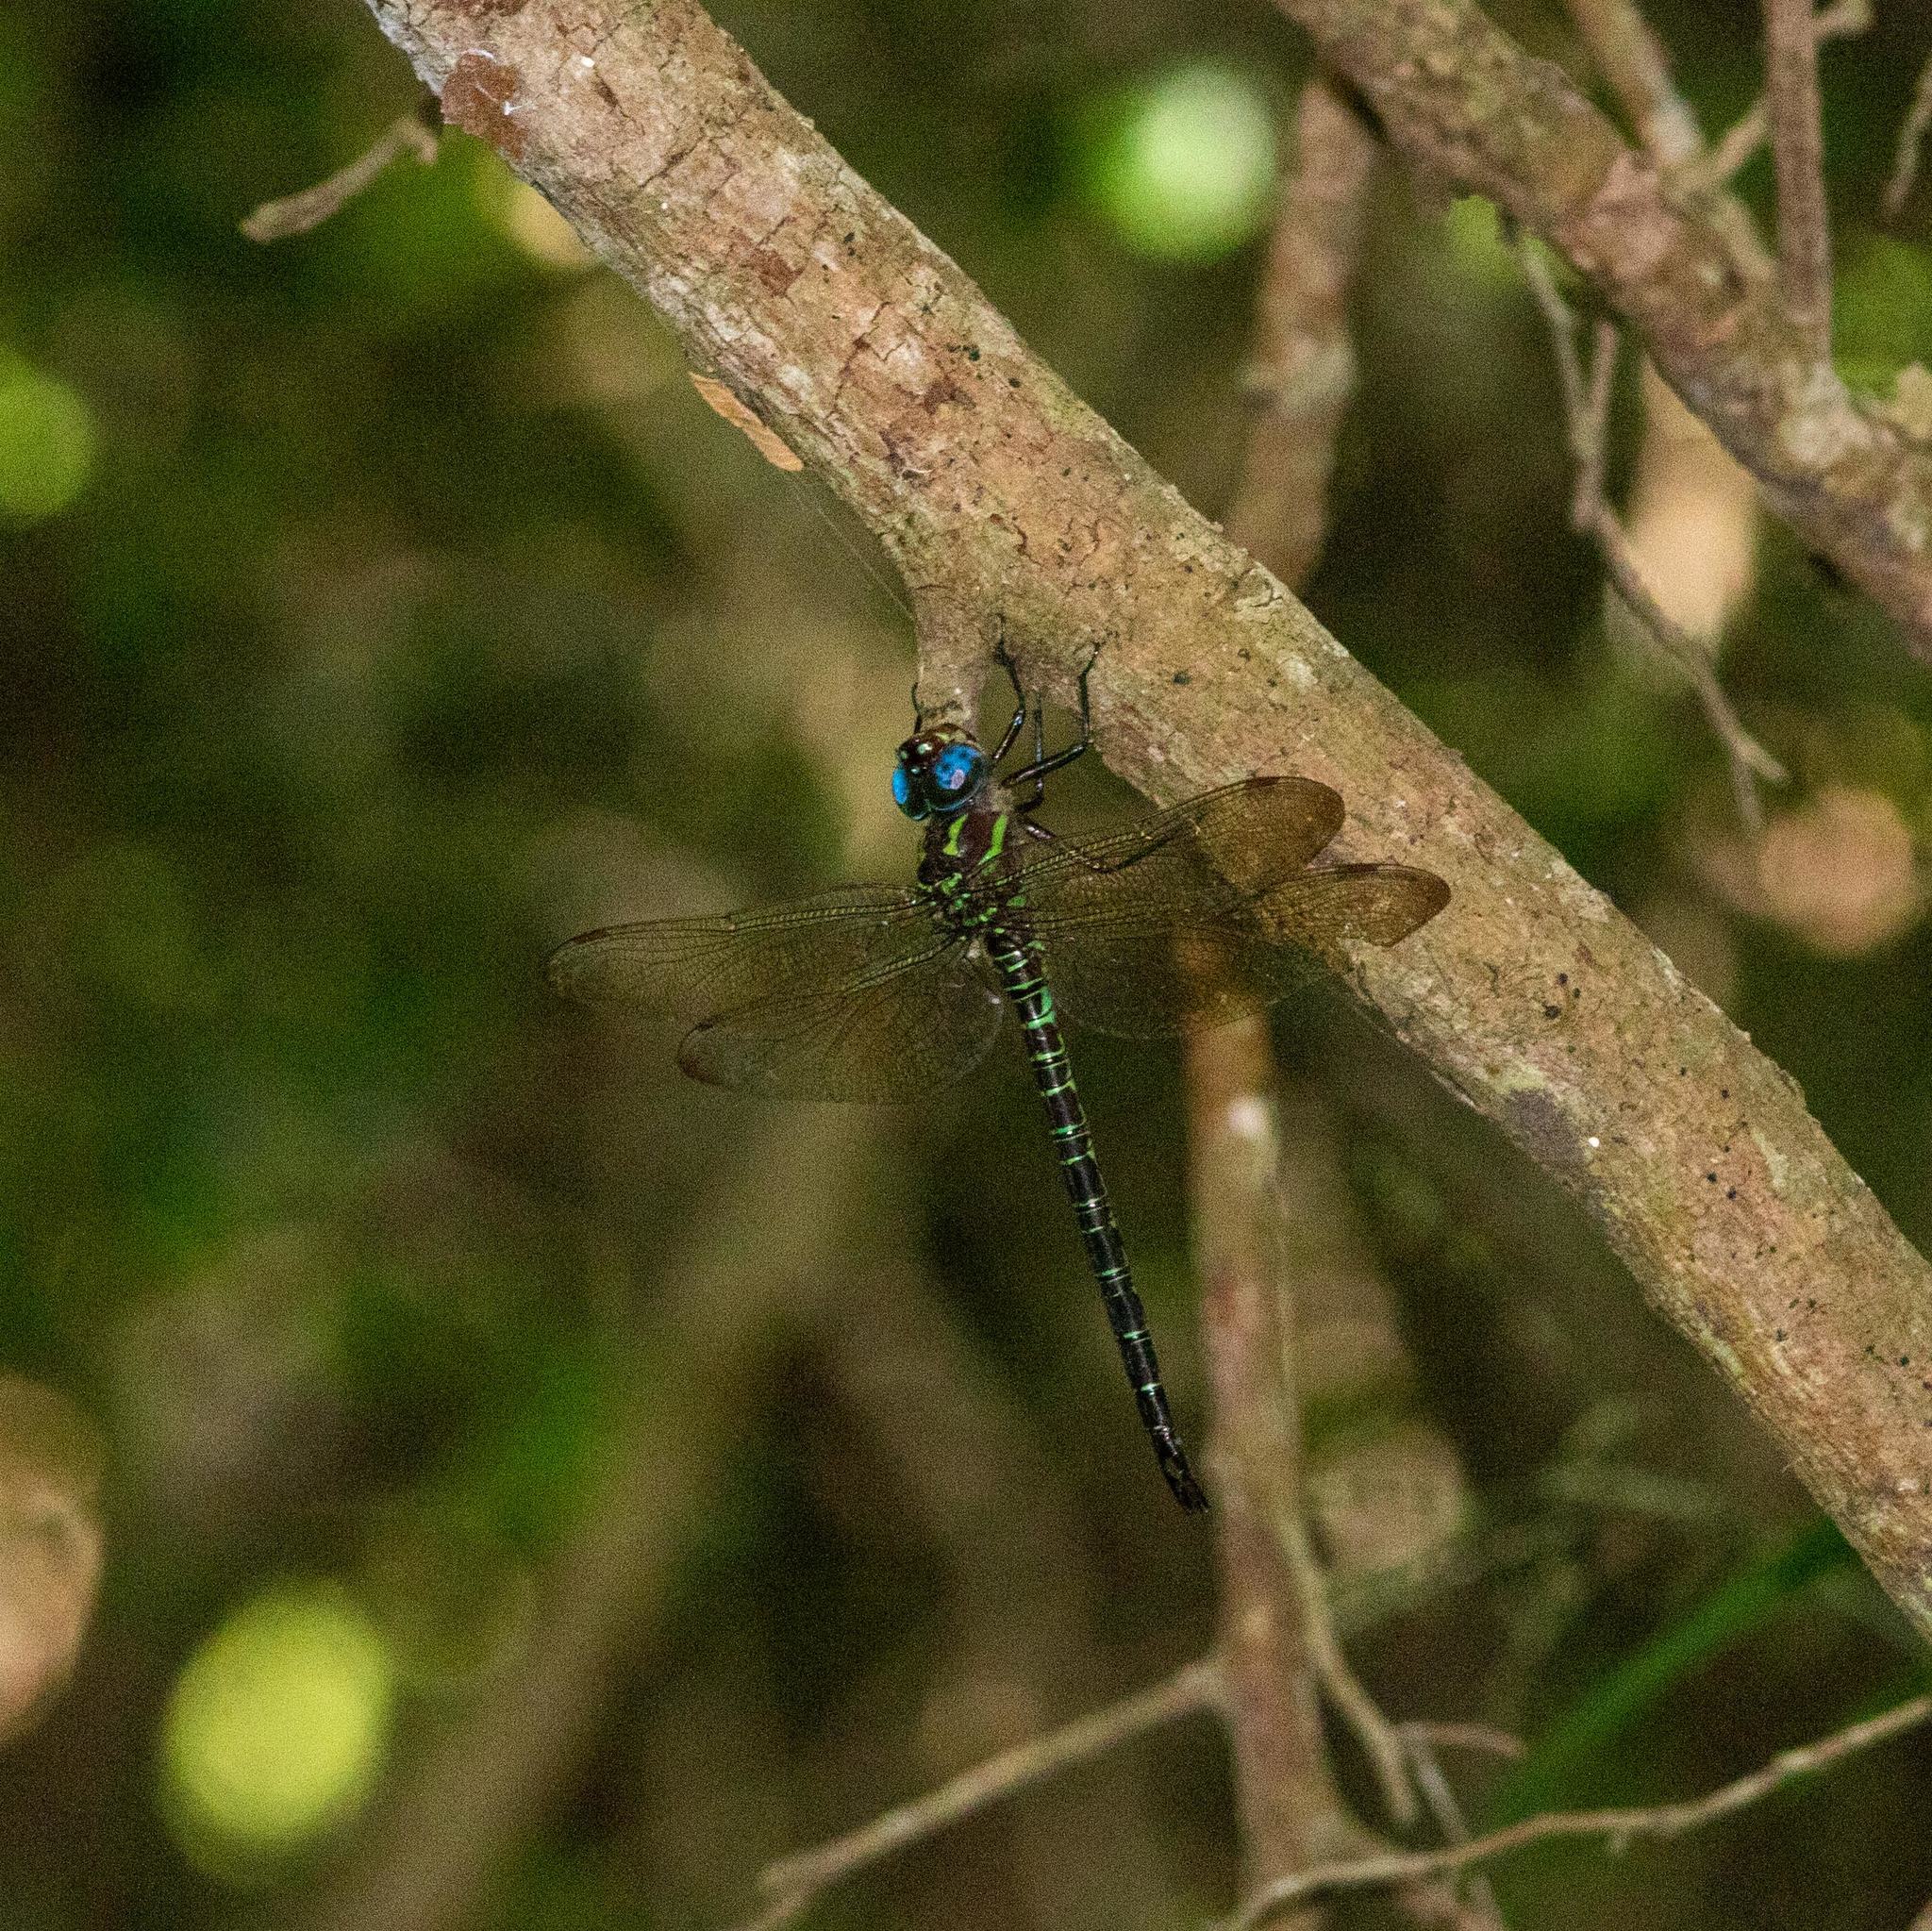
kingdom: Animalia
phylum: Arthropoda
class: Insecta
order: Odonata
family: Aeshnidae
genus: Epiaeschna
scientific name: Epiaeschna heros
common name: Swamp darner
